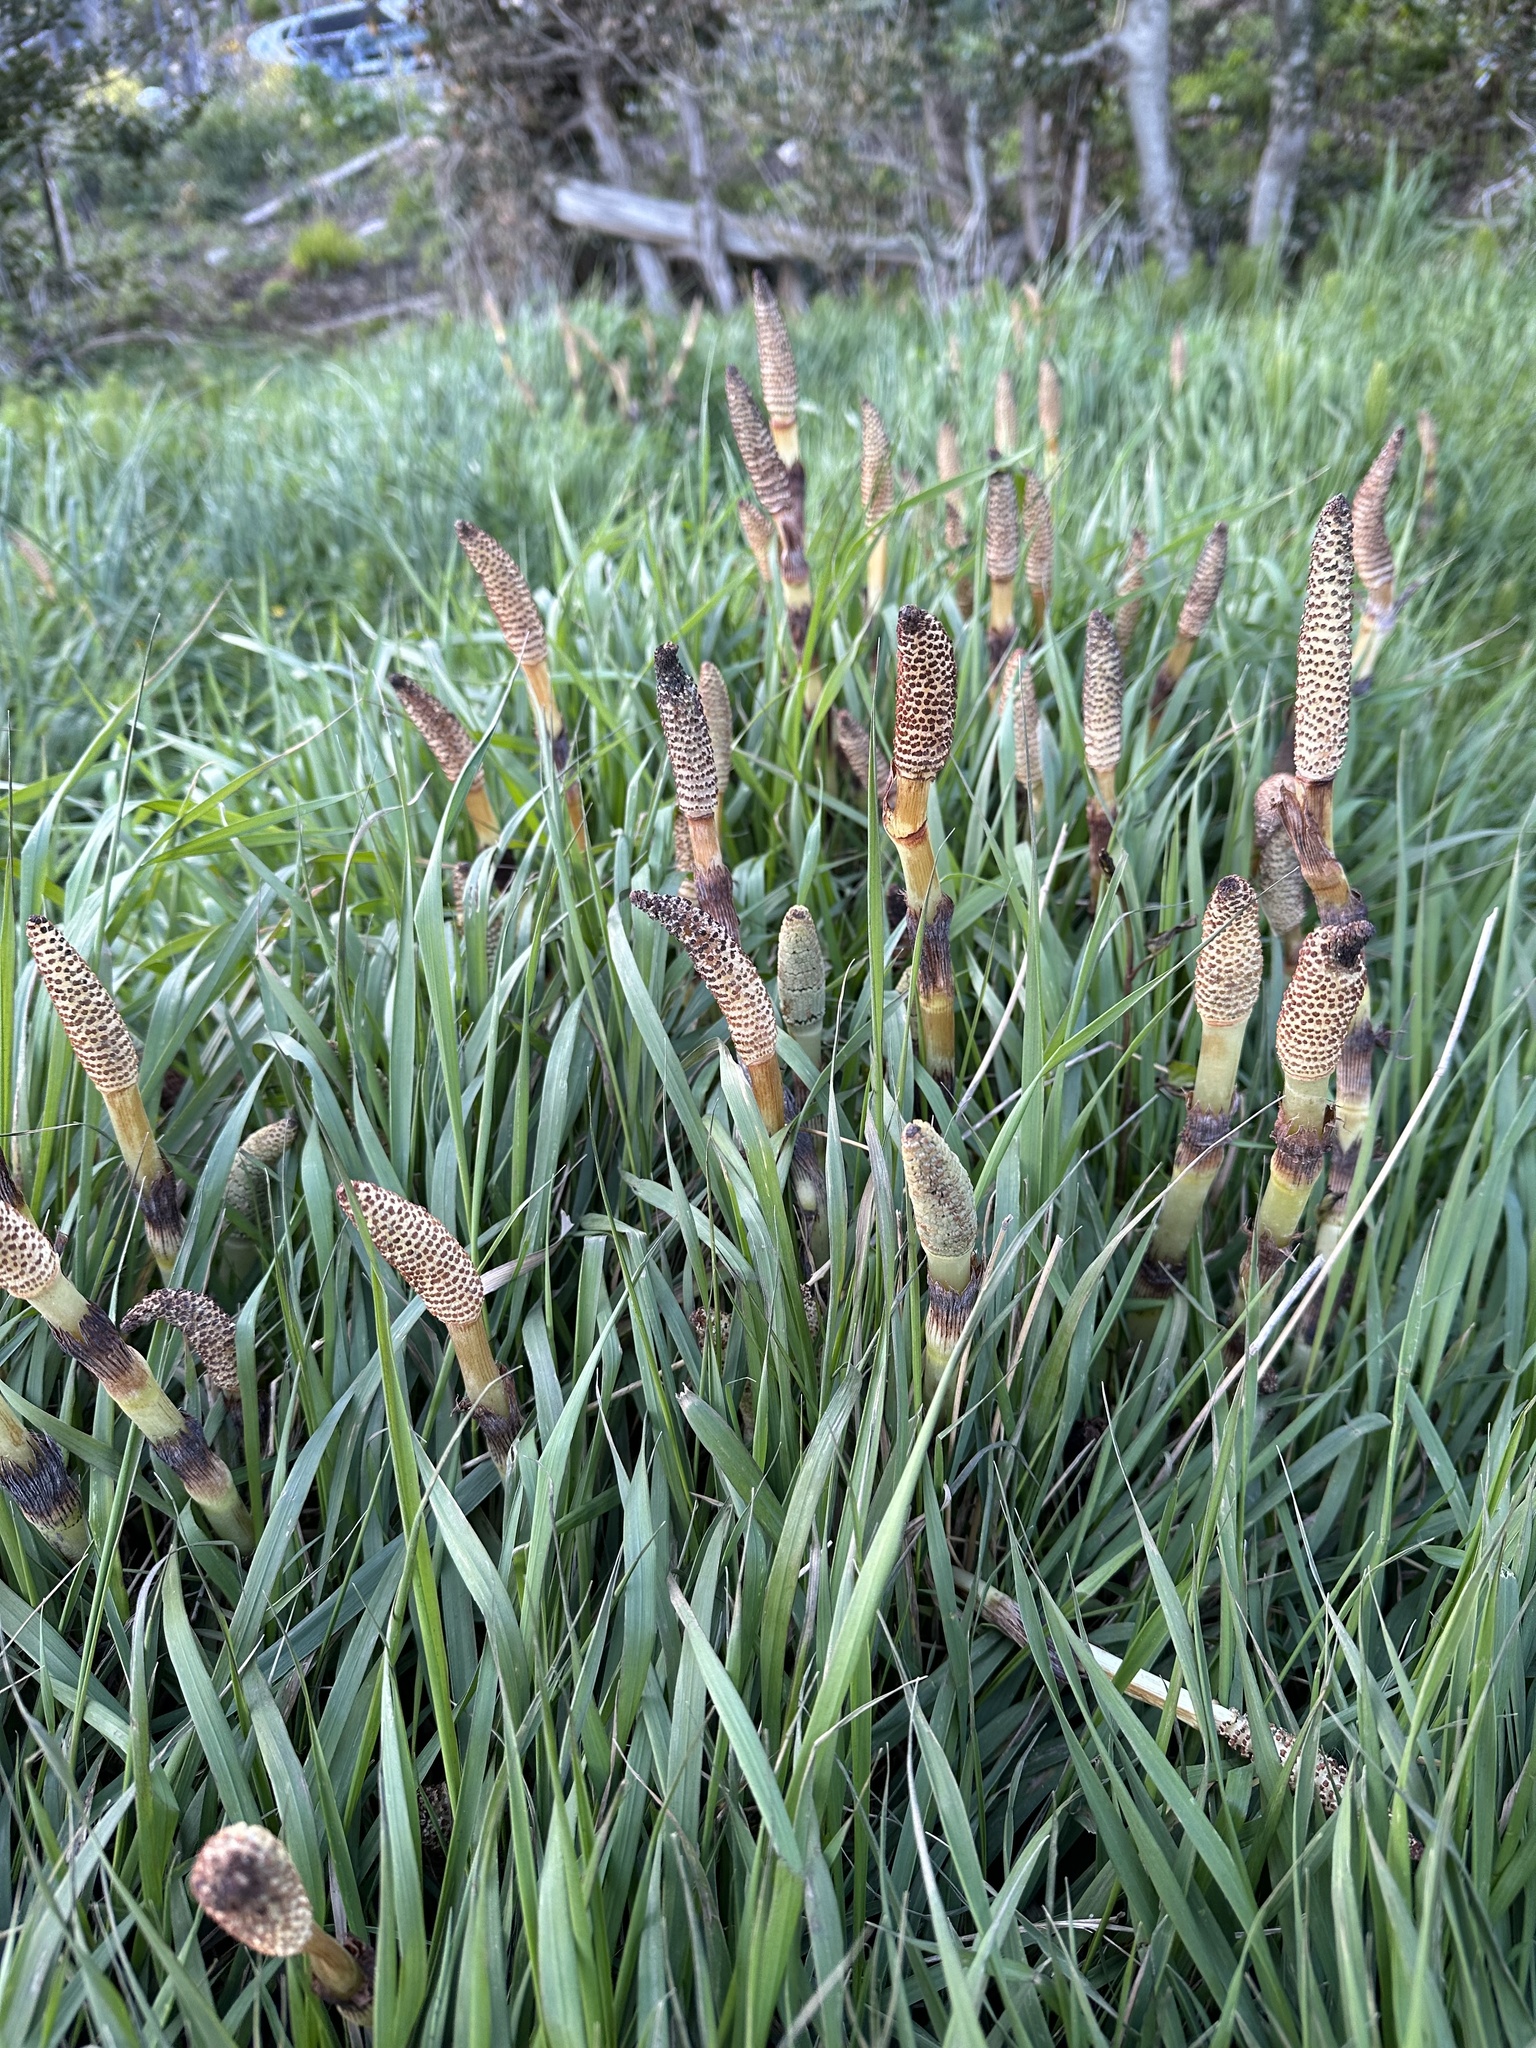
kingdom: Plantae
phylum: Tracheophyta
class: Polypodiopsida
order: Equisetales
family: Equisetaceae
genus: Equisetum
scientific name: Equisetum telmateia
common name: Great horsetail
